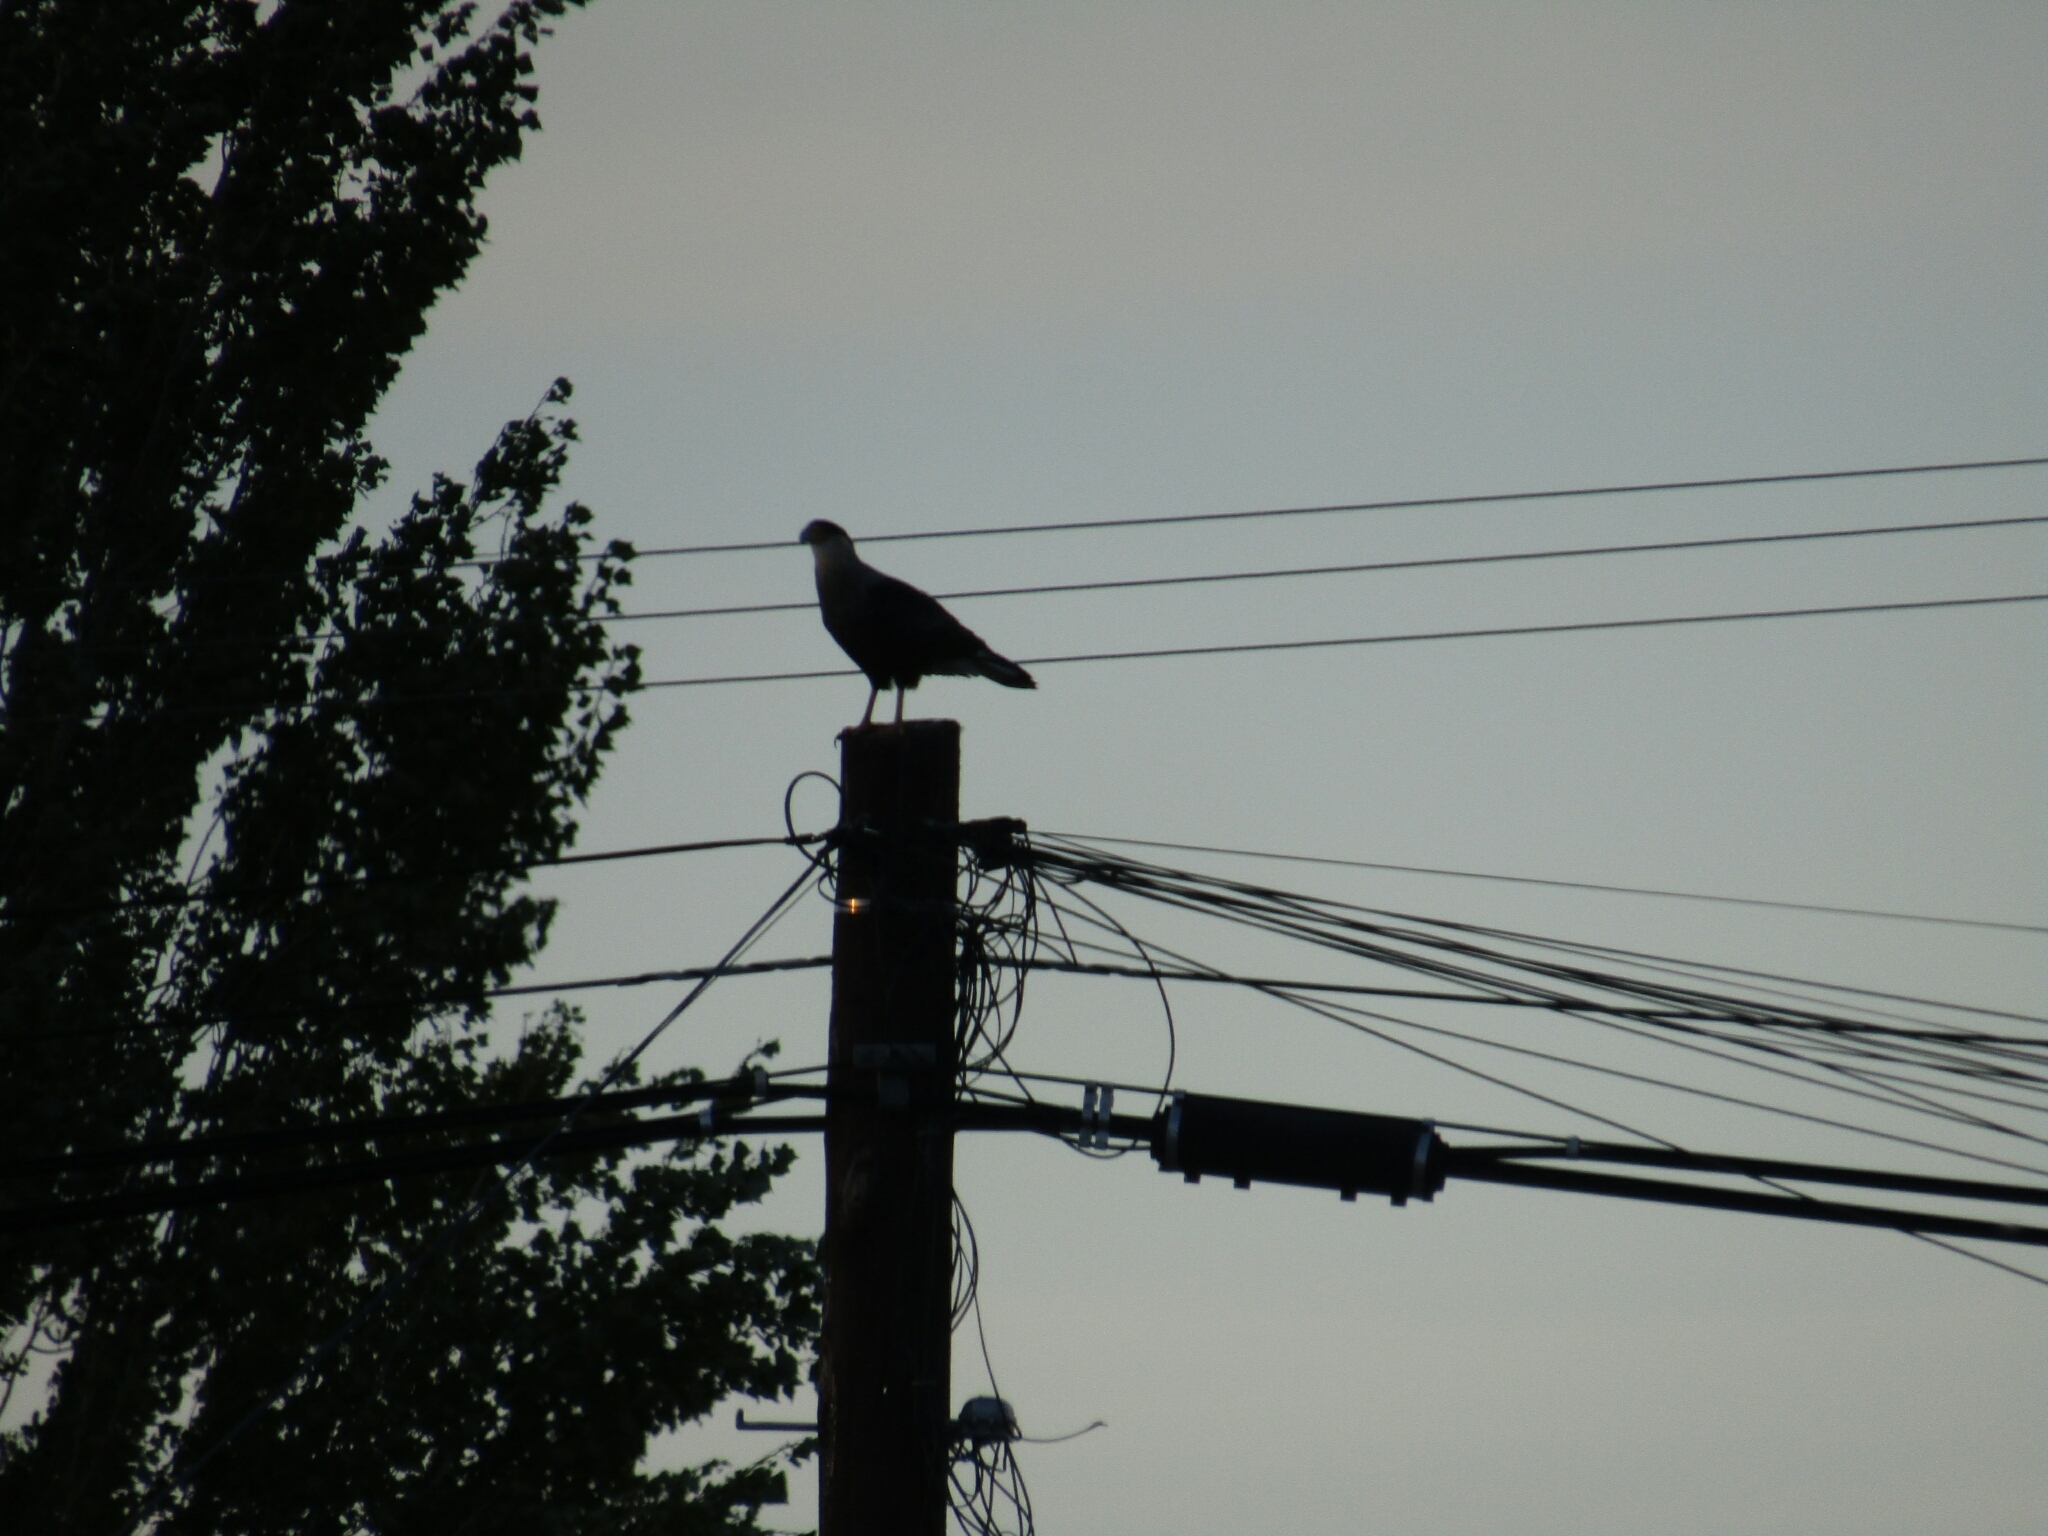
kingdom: Animalia
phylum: Chordata
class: Aves
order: Falconiformes
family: Falconidae
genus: Caracara
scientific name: Caracara plancus
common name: Southern caracara
